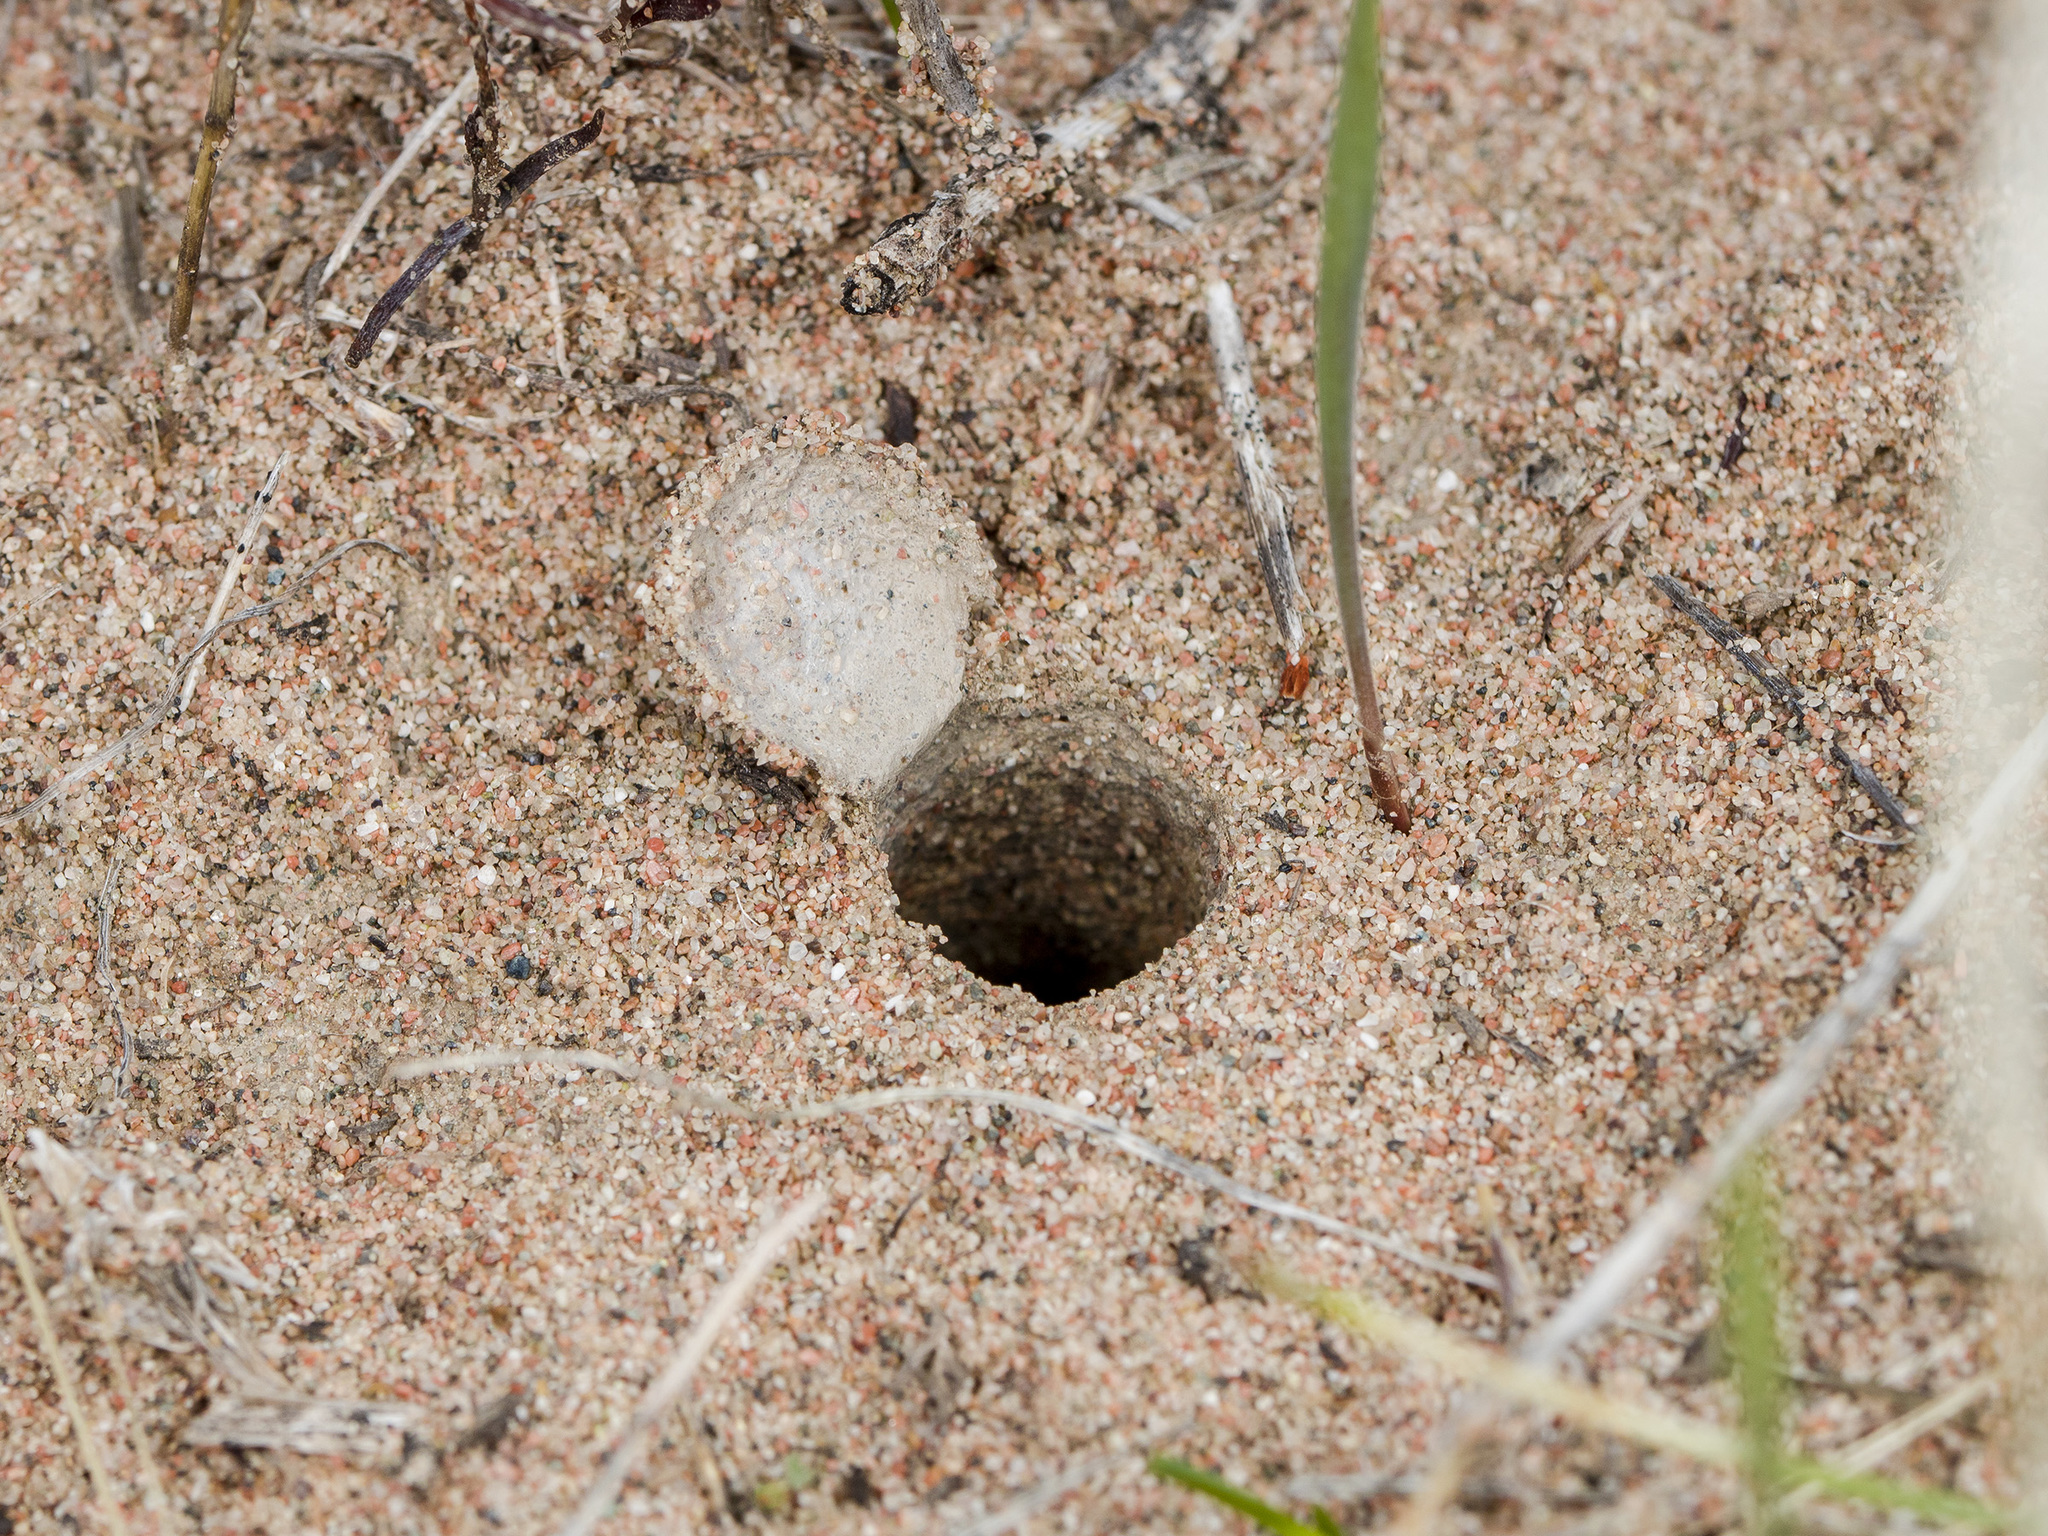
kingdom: Animalia
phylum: Arthropoda
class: Arachnida
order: Araneae
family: Lycosidae
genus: Alopecosa
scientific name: Alopecosa marikovskyi
